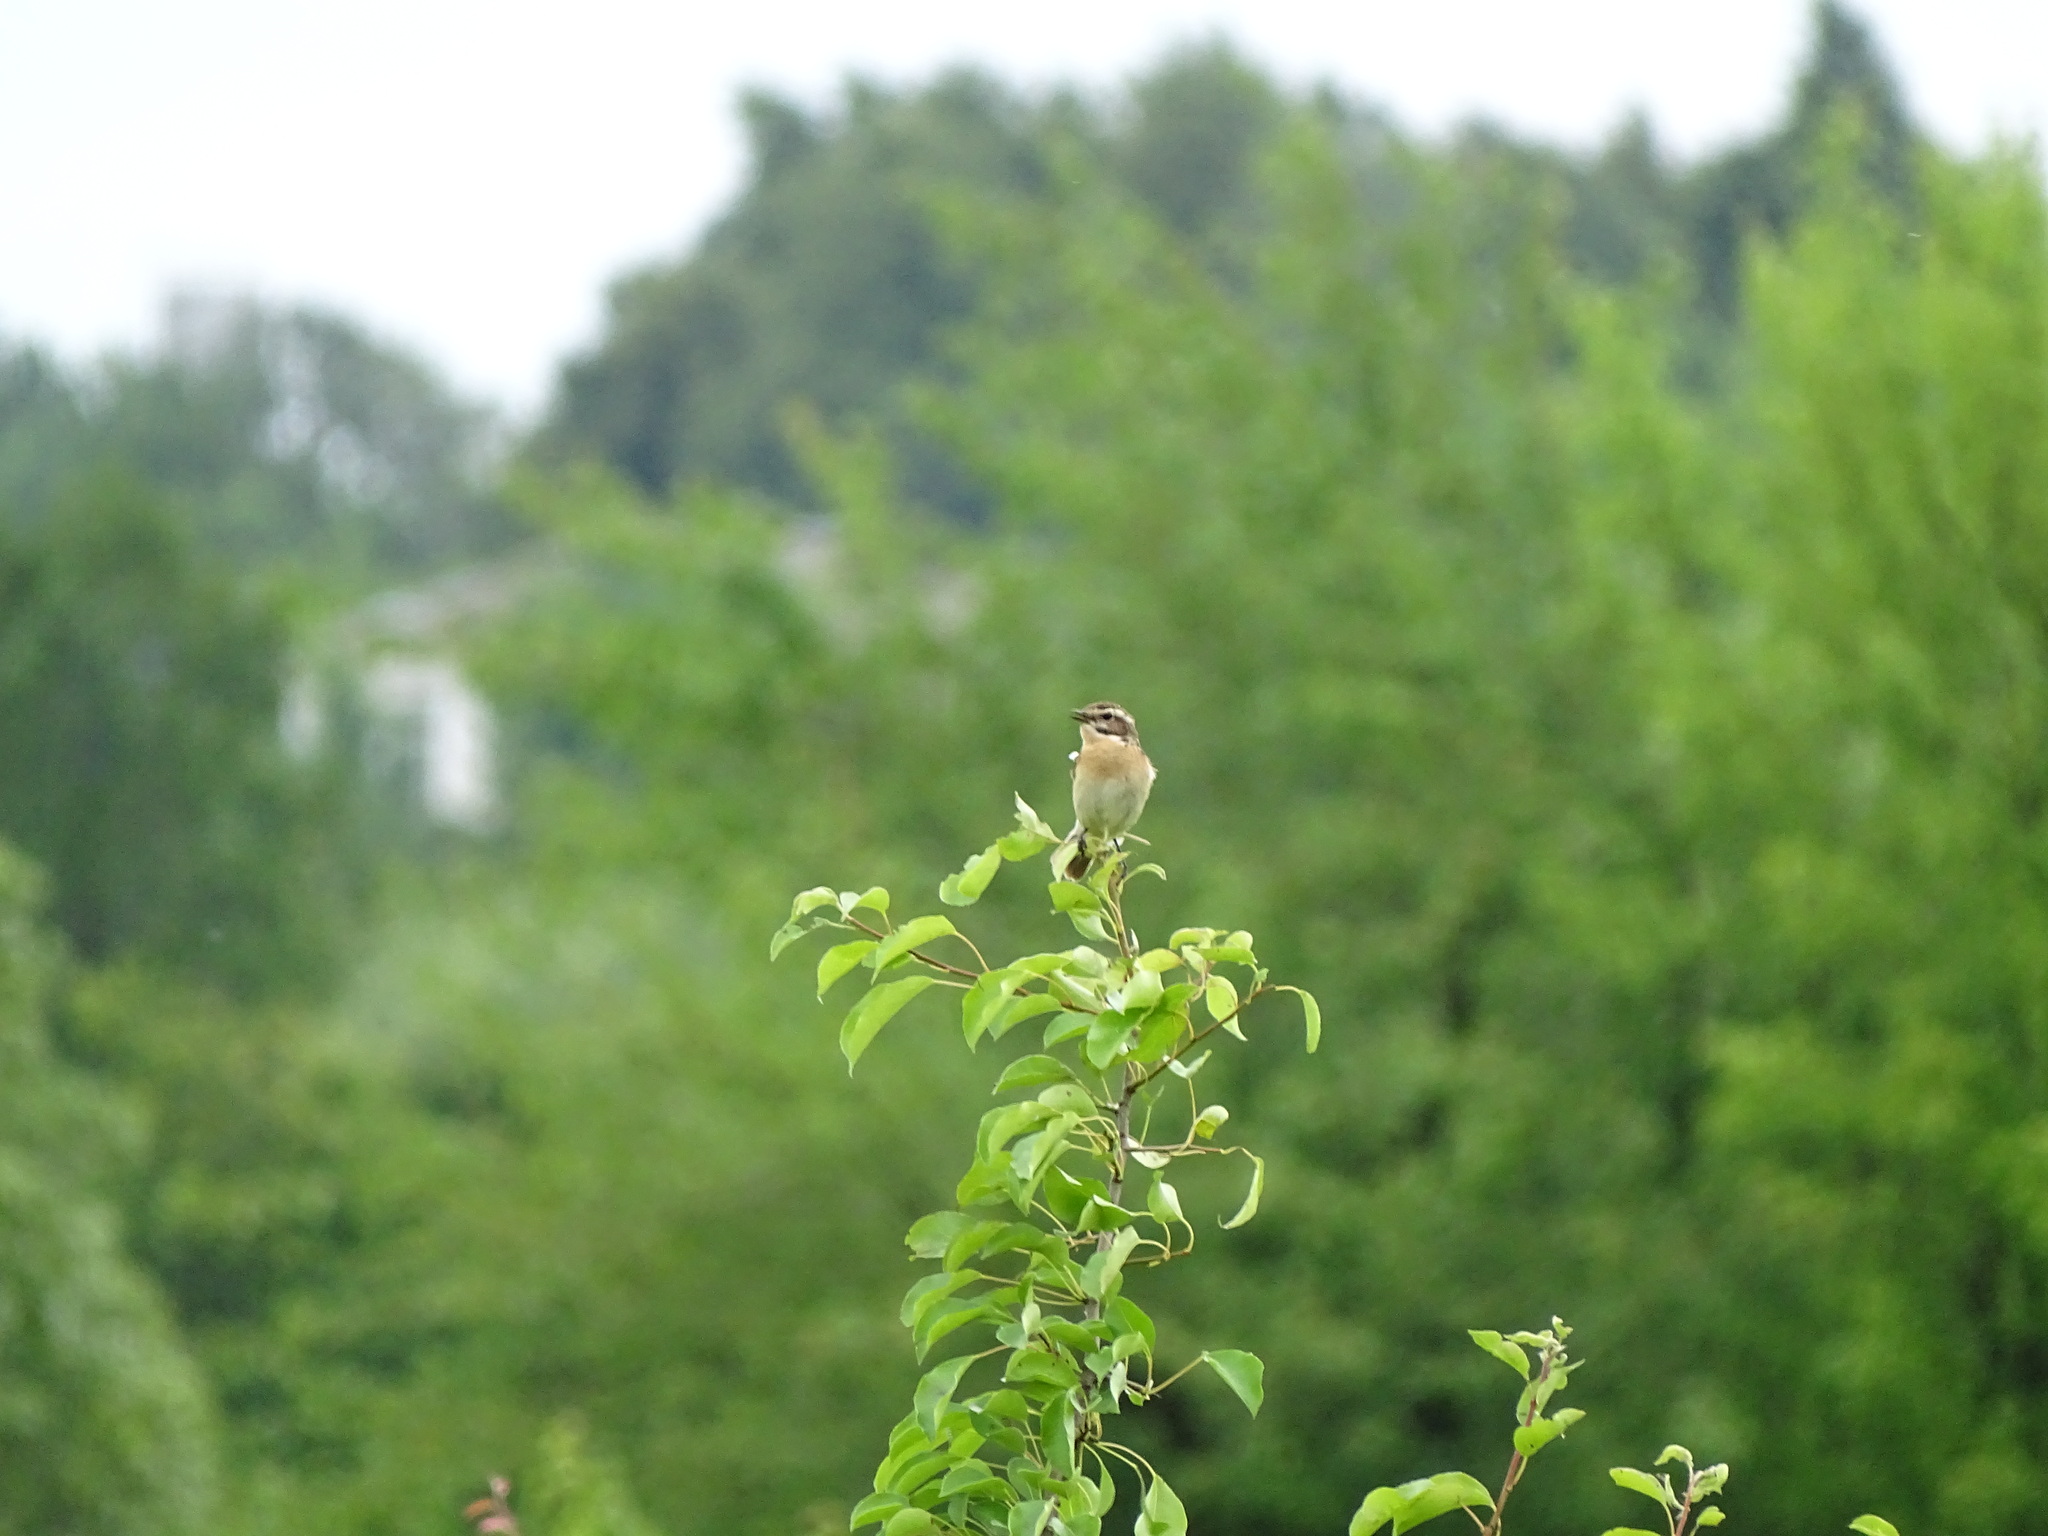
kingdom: Animalia
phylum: Chordata
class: Aves
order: Passeriformes
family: Muscicapidae
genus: Saxicola
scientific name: Saxicola rubetra
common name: Whinchat
